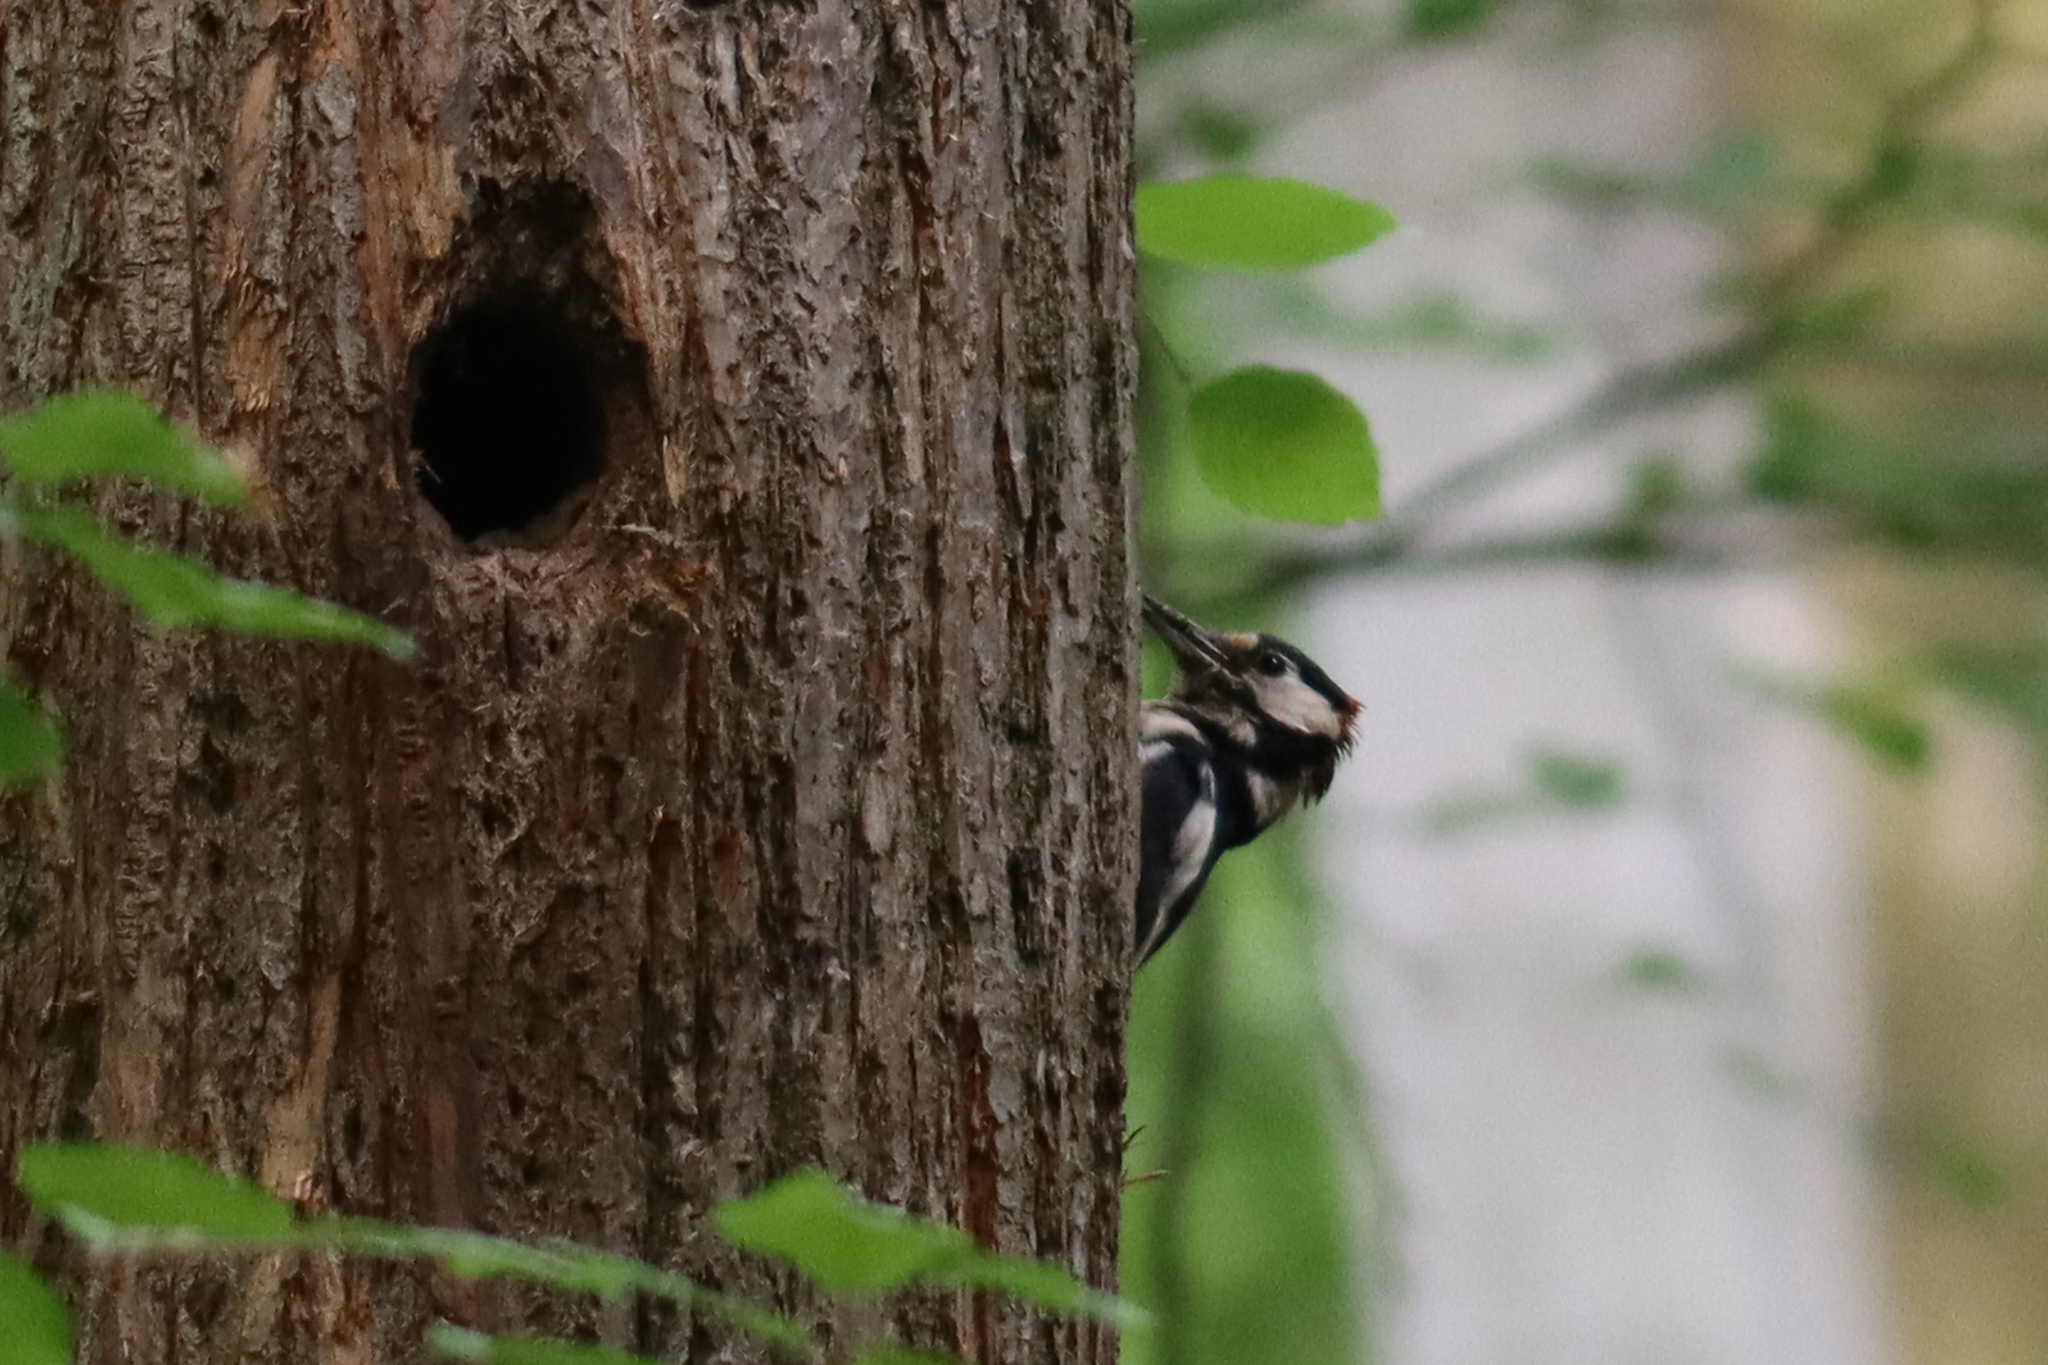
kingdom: Animalia
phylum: Chordata
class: Aves
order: Piciformes
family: Picidae
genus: Dendrocopos
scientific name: Dendrocopos major
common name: Great spotted woodpecker
